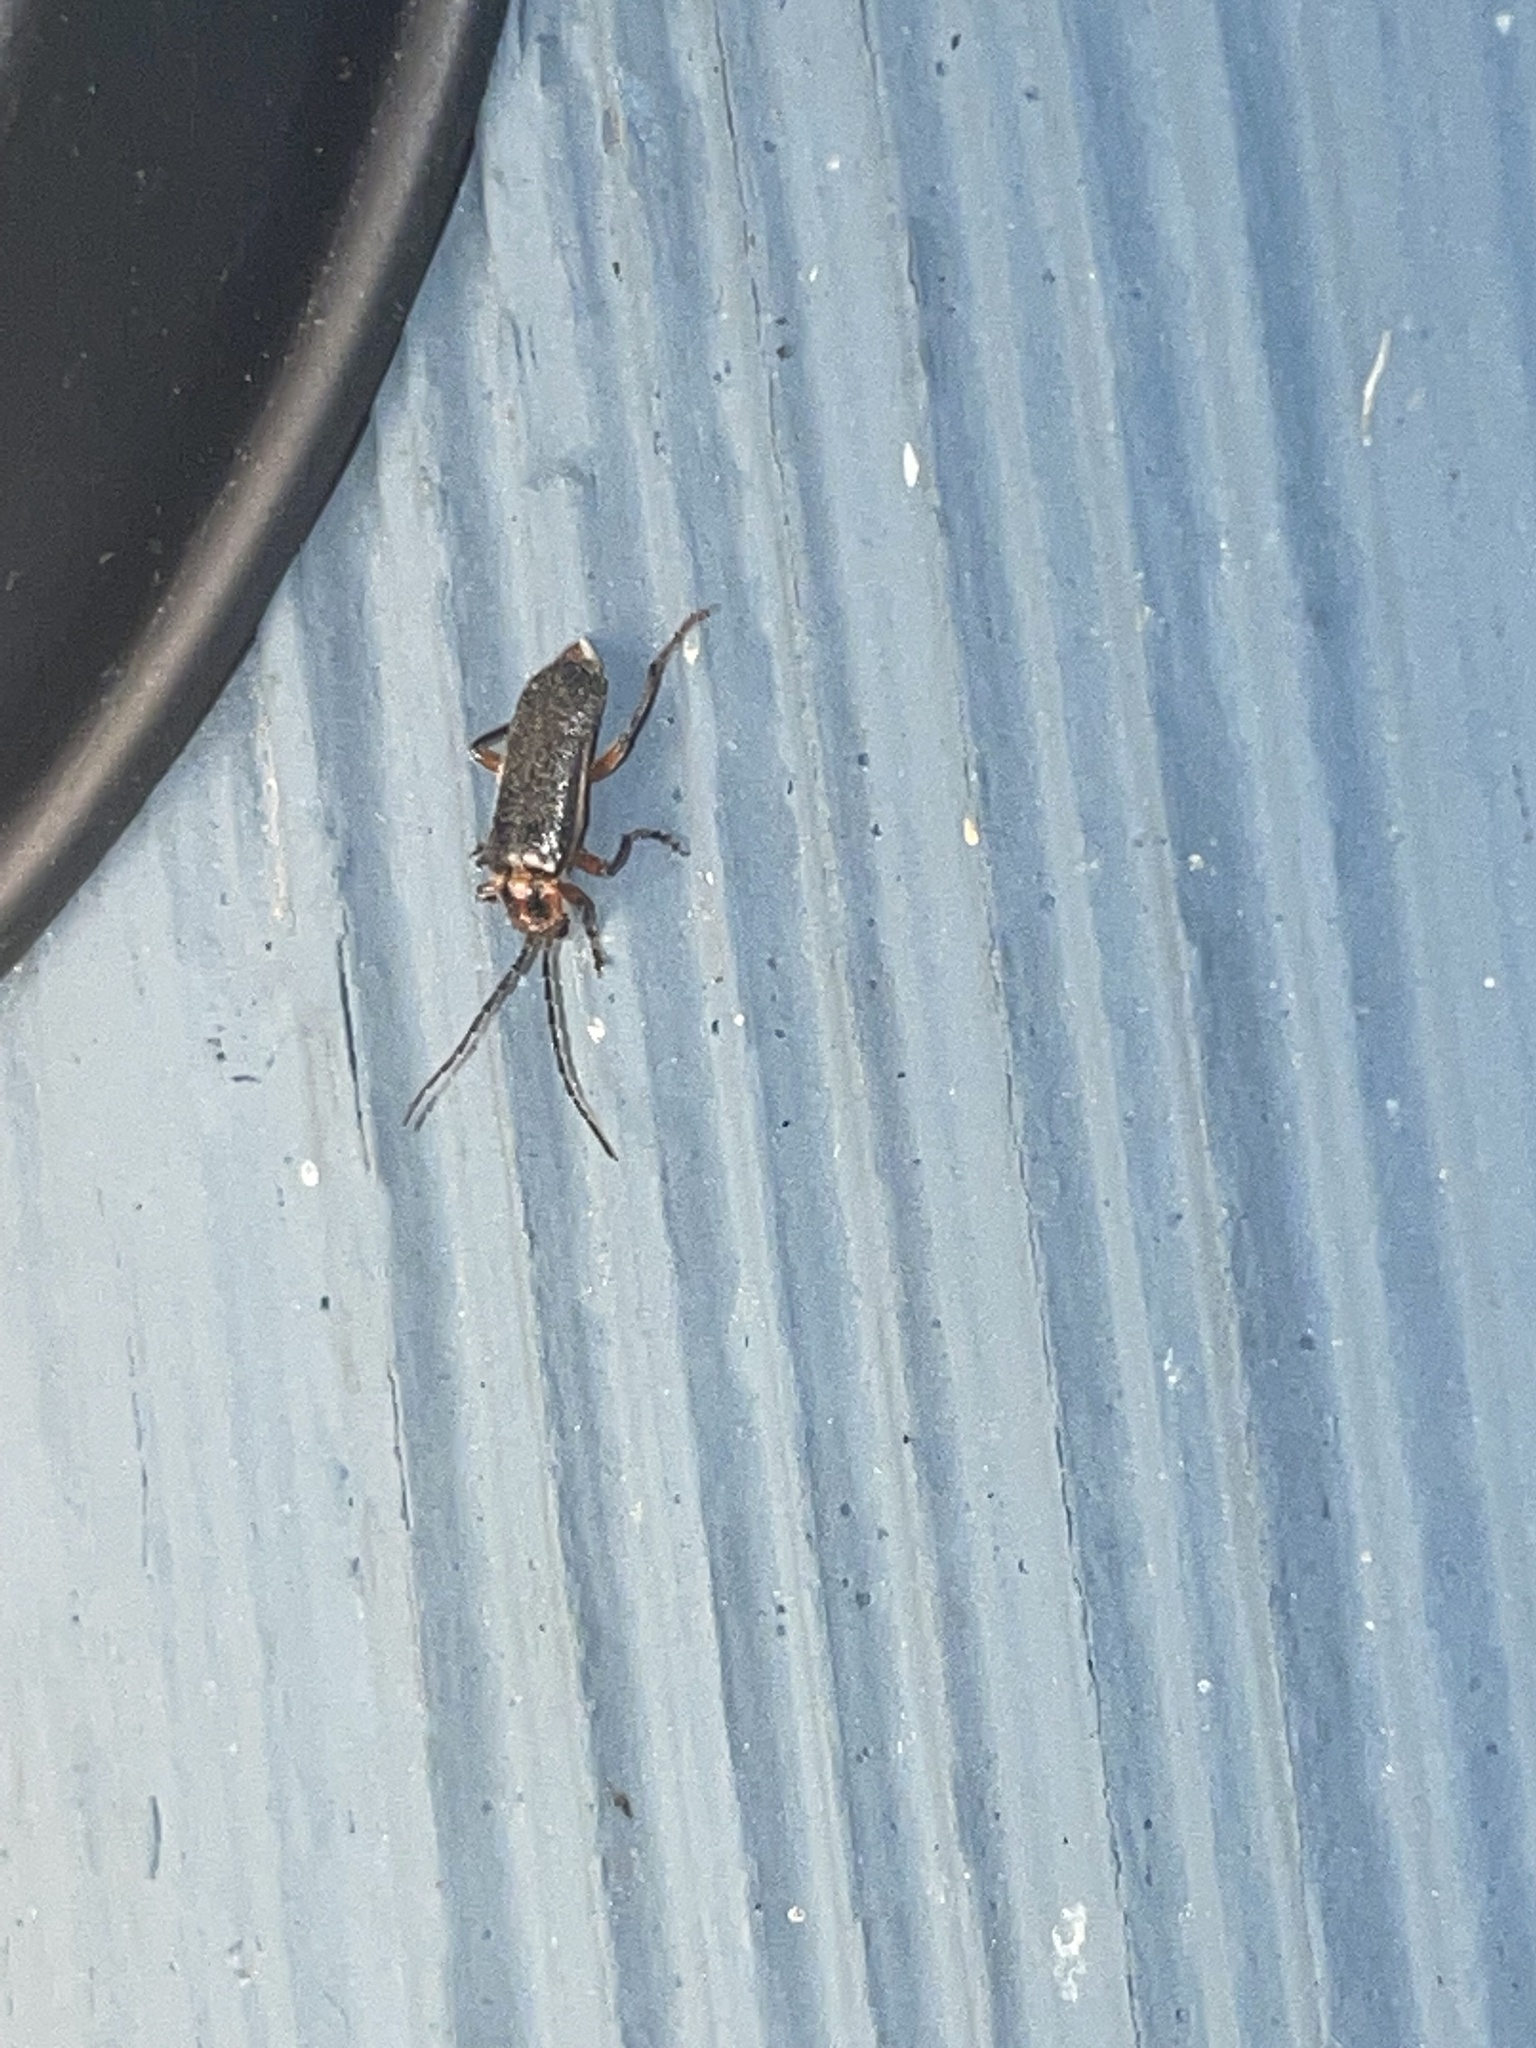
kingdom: Animalia
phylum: Arthropoda
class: Insecta
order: Coleoptera
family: Cantharidae
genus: Atalantycha
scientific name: Atalantycha bilineata
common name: Two-lined leatherwing
